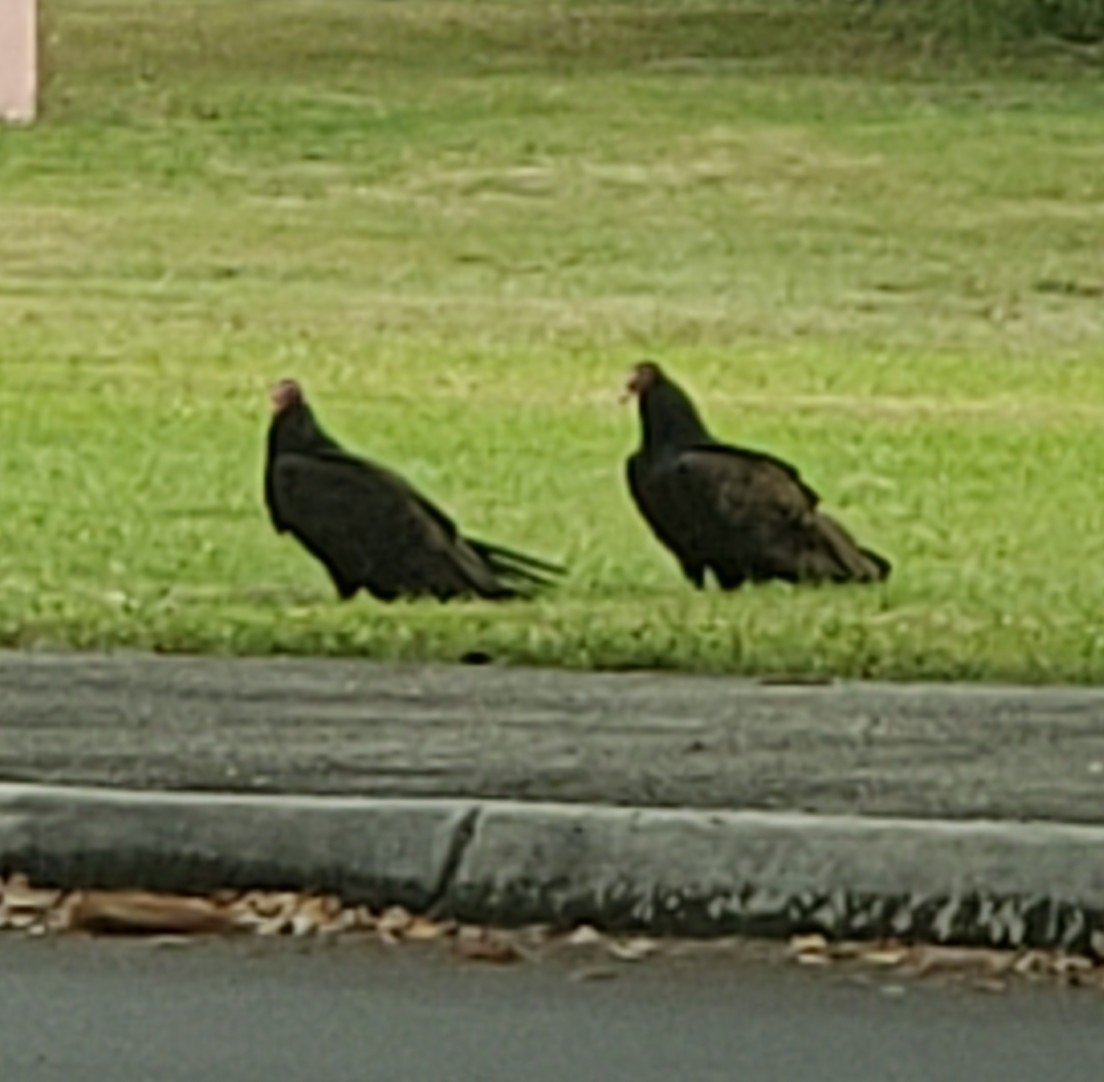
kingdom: Animalia
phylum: Chordata
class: Aves
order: Accipitriformes
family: Cathartidae
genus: Cathartes
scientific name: Cathartes aura
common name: Turkey vulture
